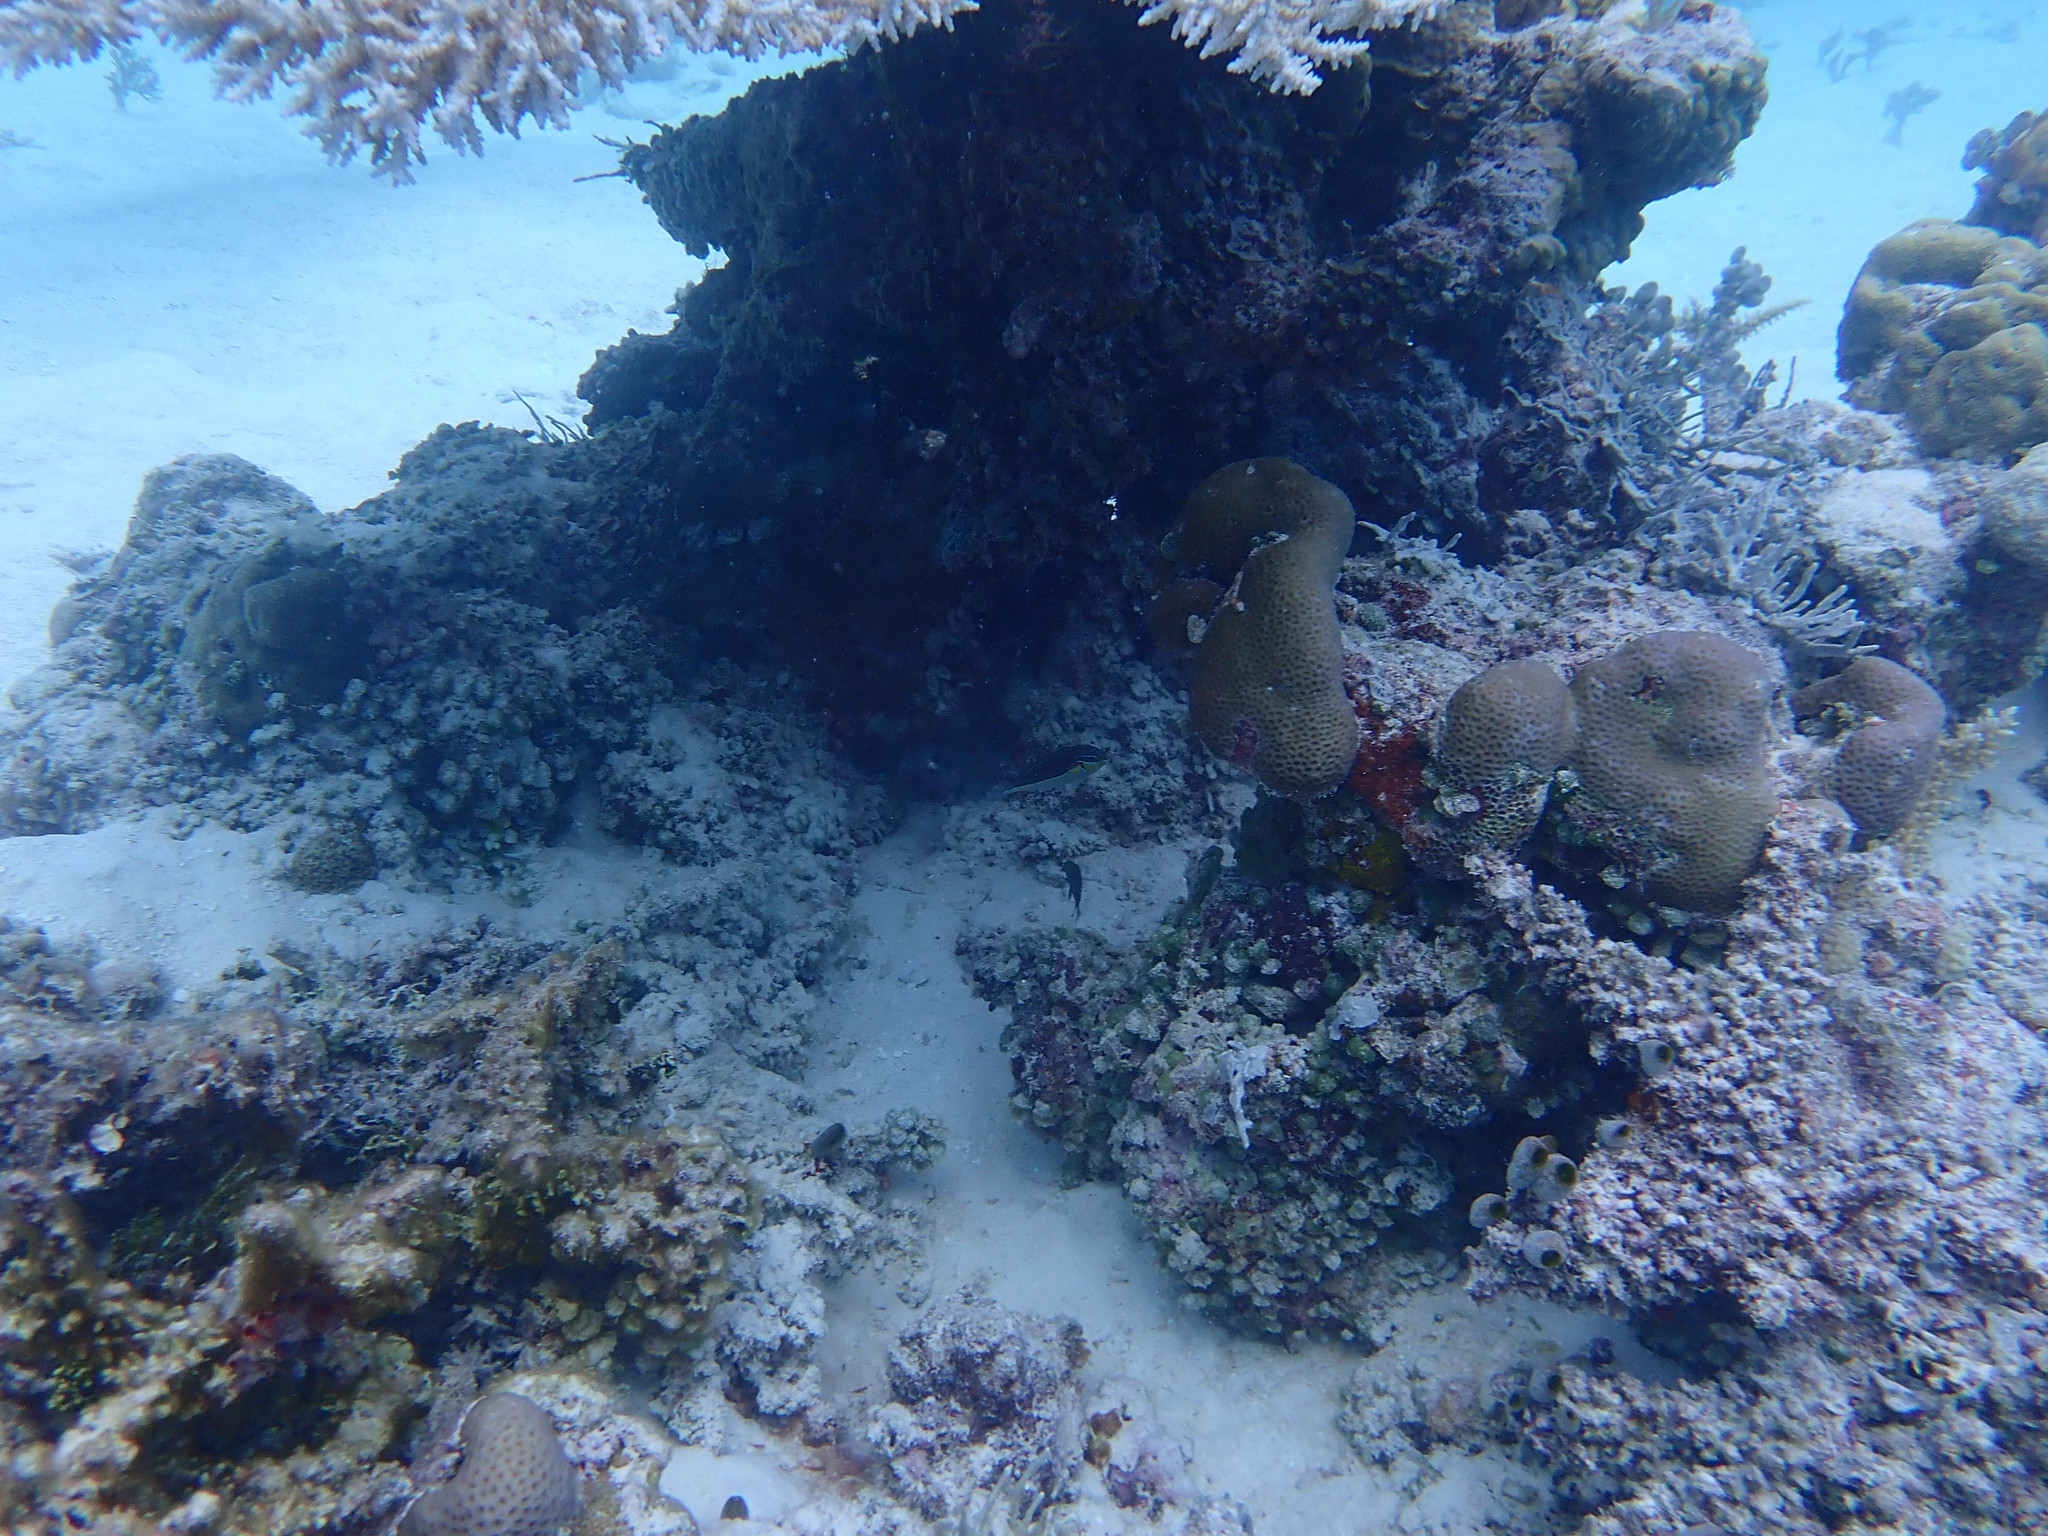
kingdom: Animalia
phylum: Chordata
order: Perciformes
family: Labridae
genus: Stethojulis
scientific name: Stethojulis bandanensis
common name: Red shoulder wrasse
